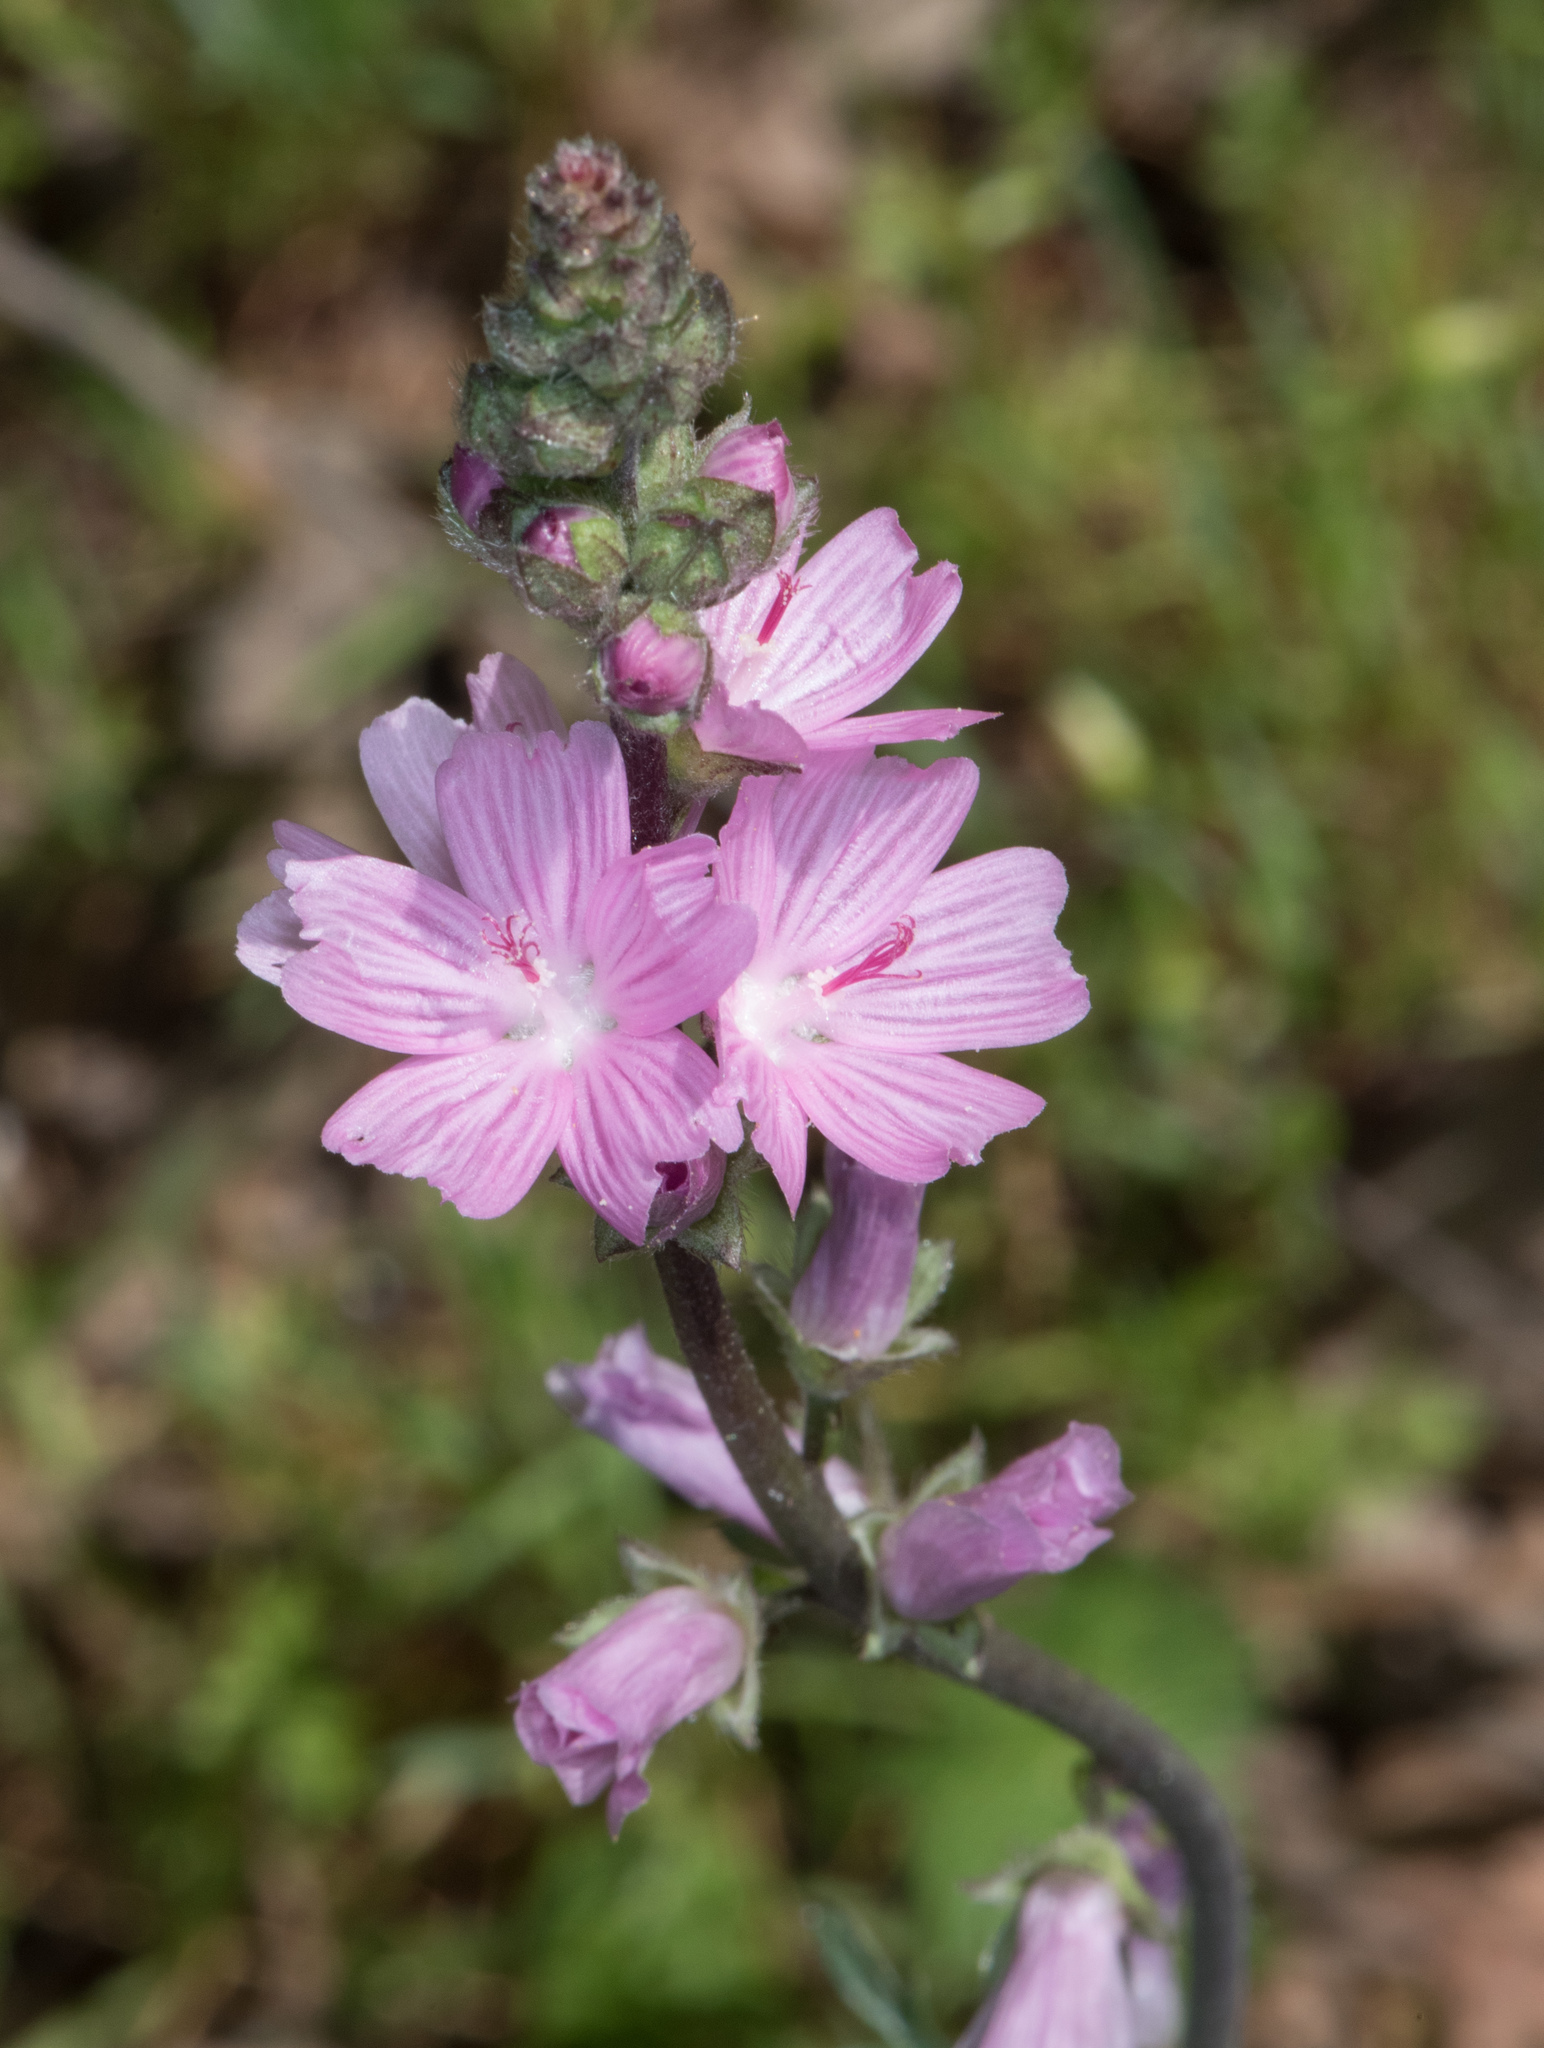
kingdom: Plantae
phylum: Tracheophyta
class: Magnoliopsida
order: Malvales
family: Malvaceae
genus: Sidalcea
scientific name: Sidalcea malviflora
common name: Greek mallow
